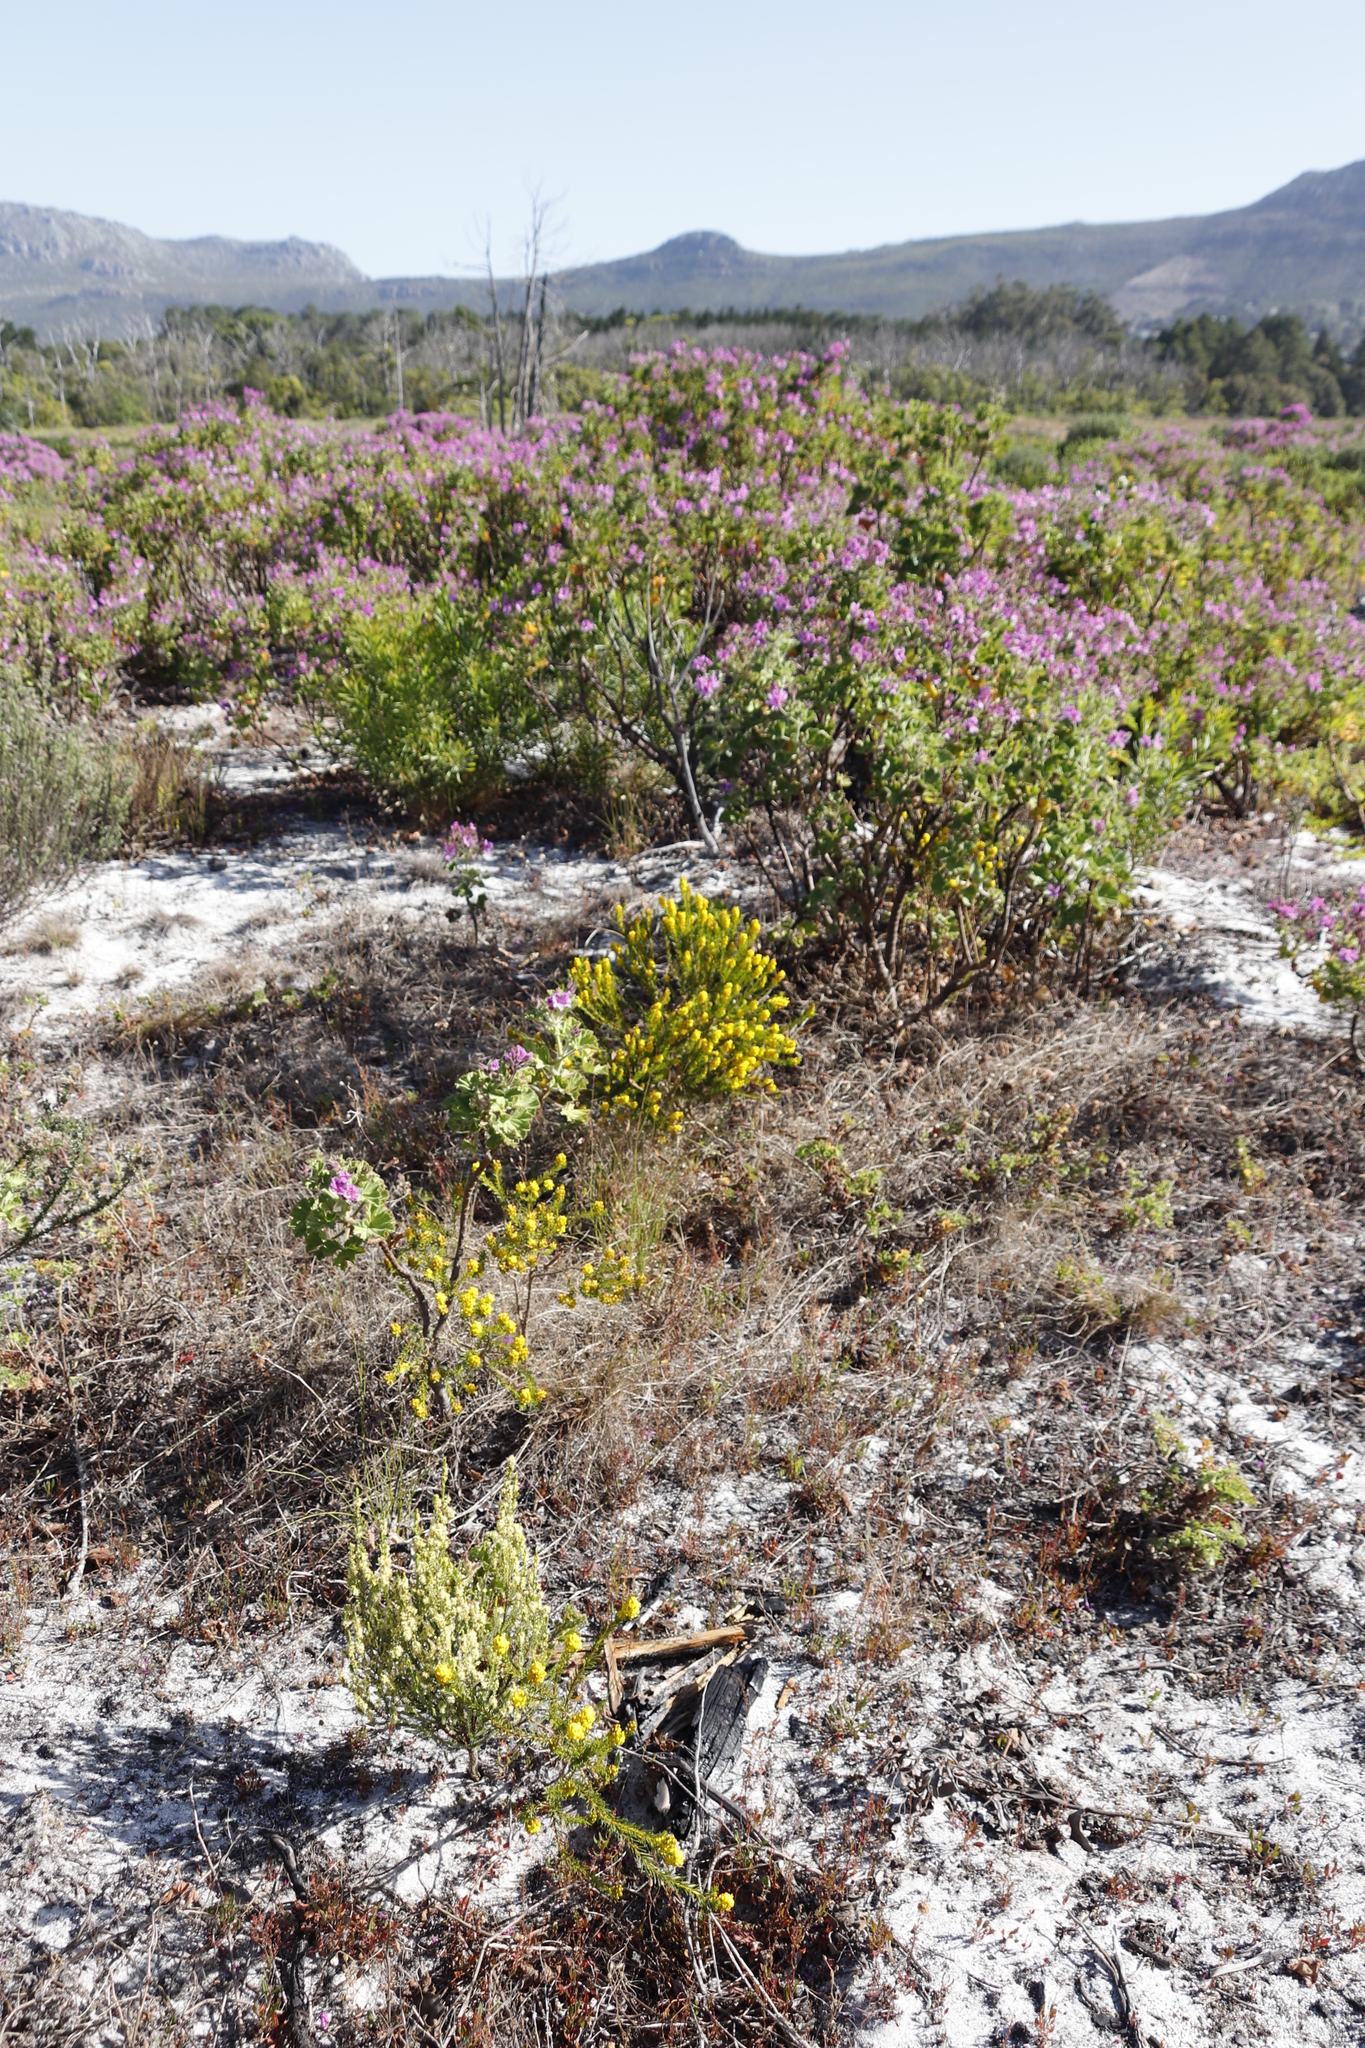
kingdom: Plantae
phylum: Tracheophyta
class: Magnoliopsida
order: Fabales
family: Fabaceae
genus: Aspalathus
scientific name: Aspalathus callosa
